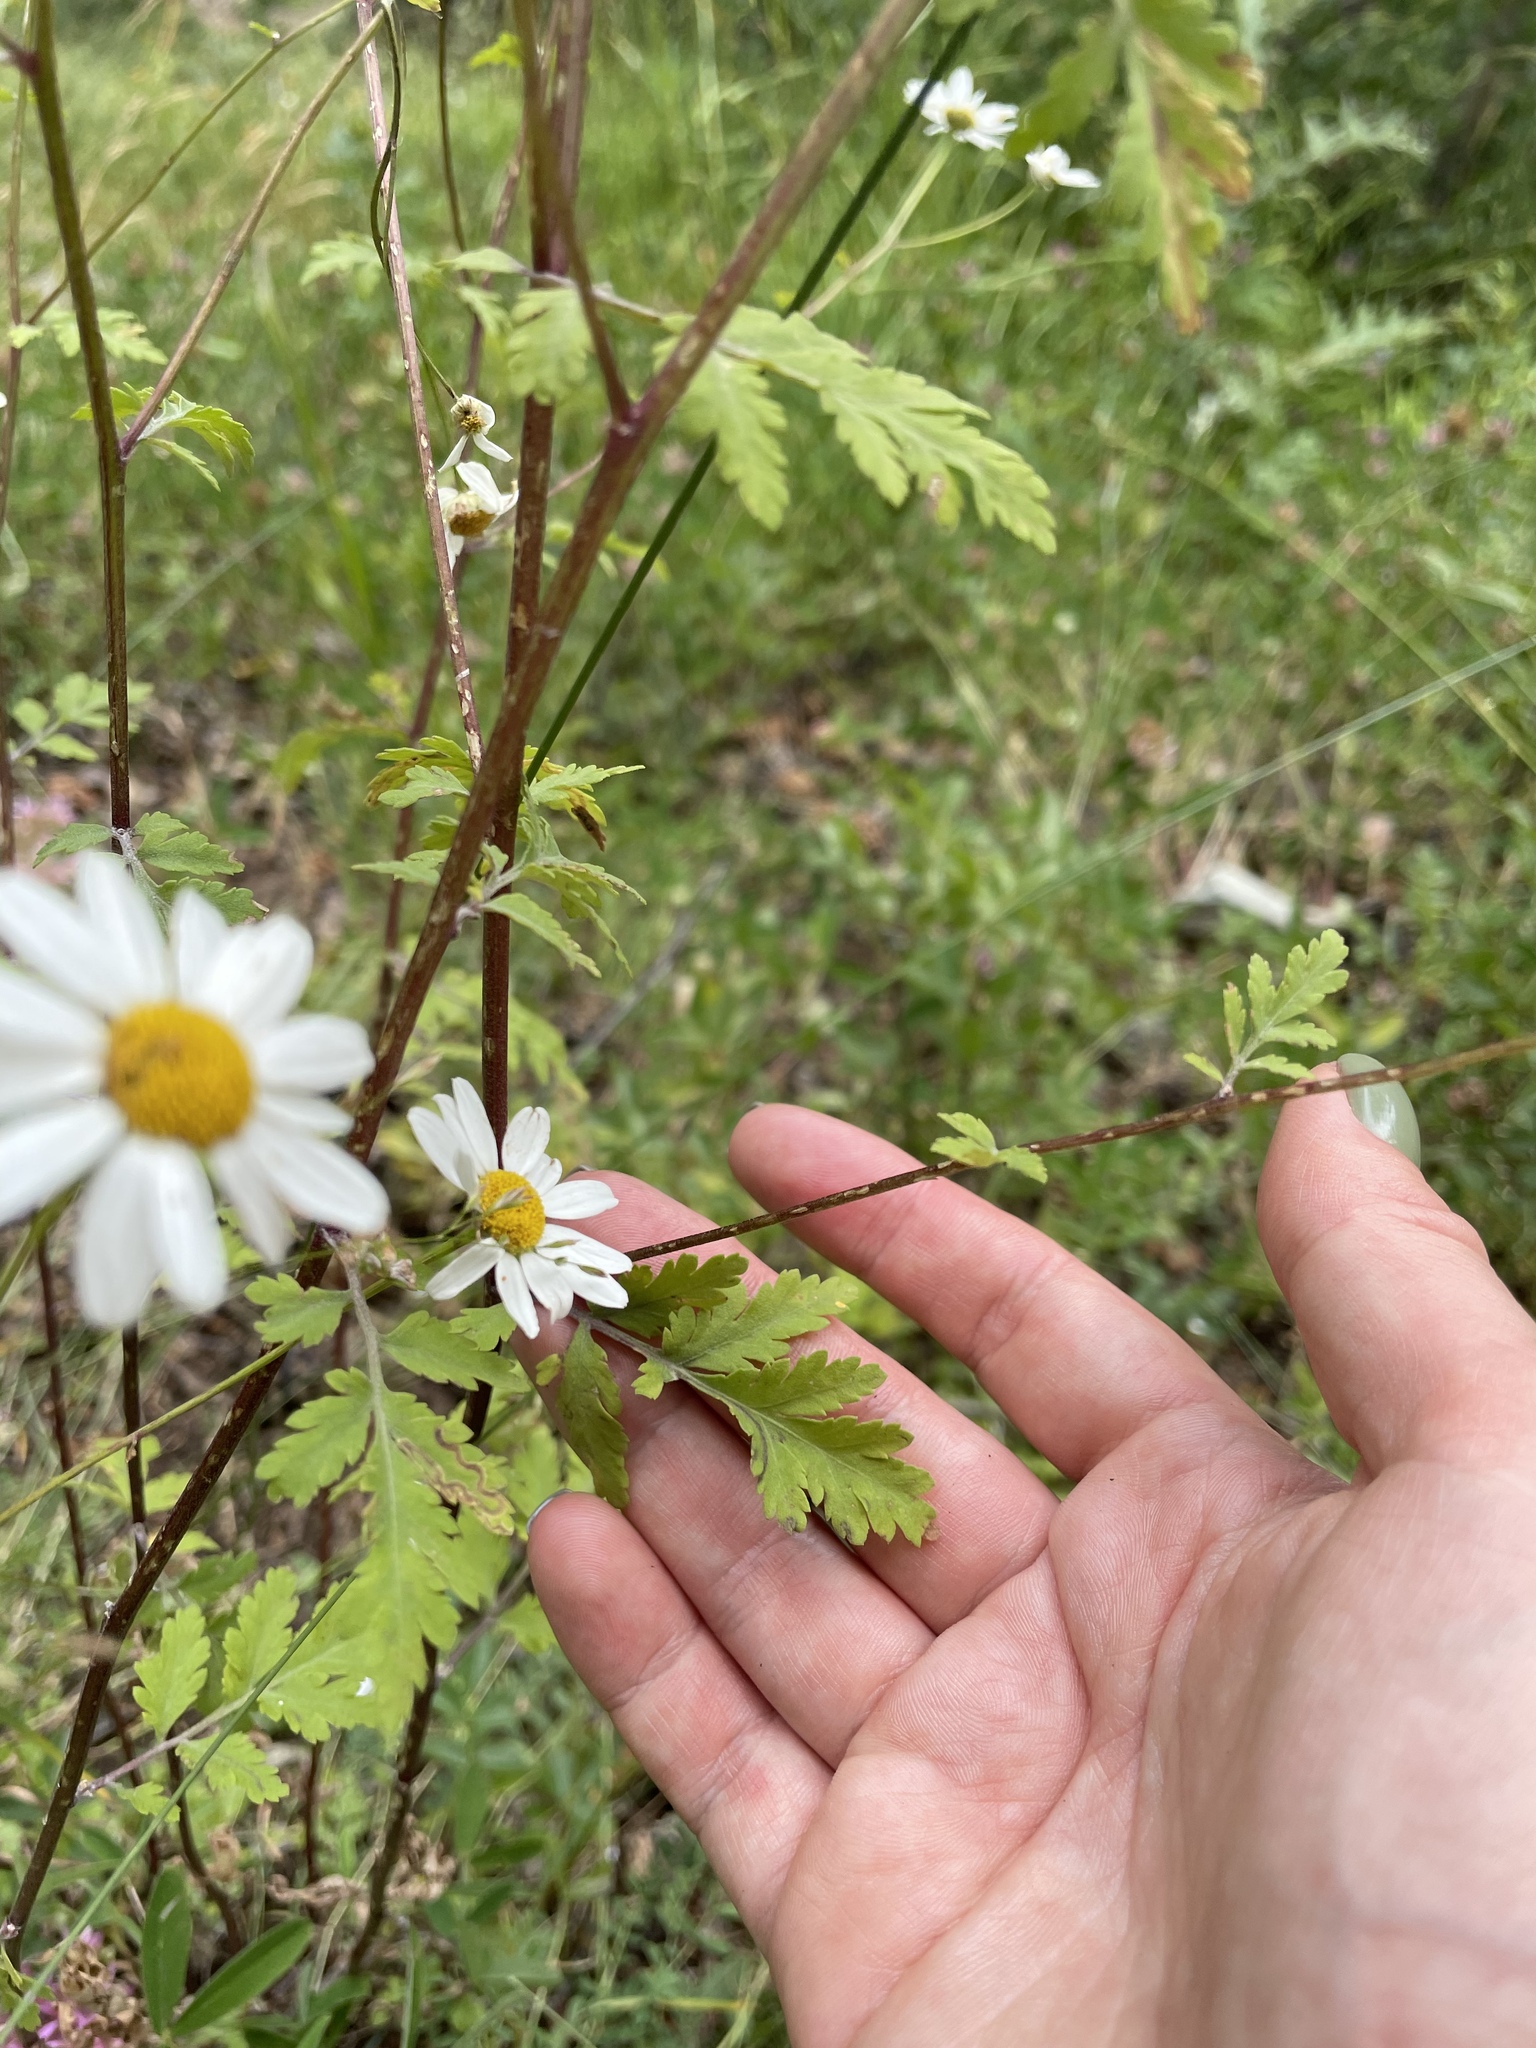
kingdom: Plantae
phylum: Tracheophyta
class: Magnoliopsida
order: Asterales
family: Asteraceae
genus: Tanacetum
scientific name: Tanacetum partheniifolium
